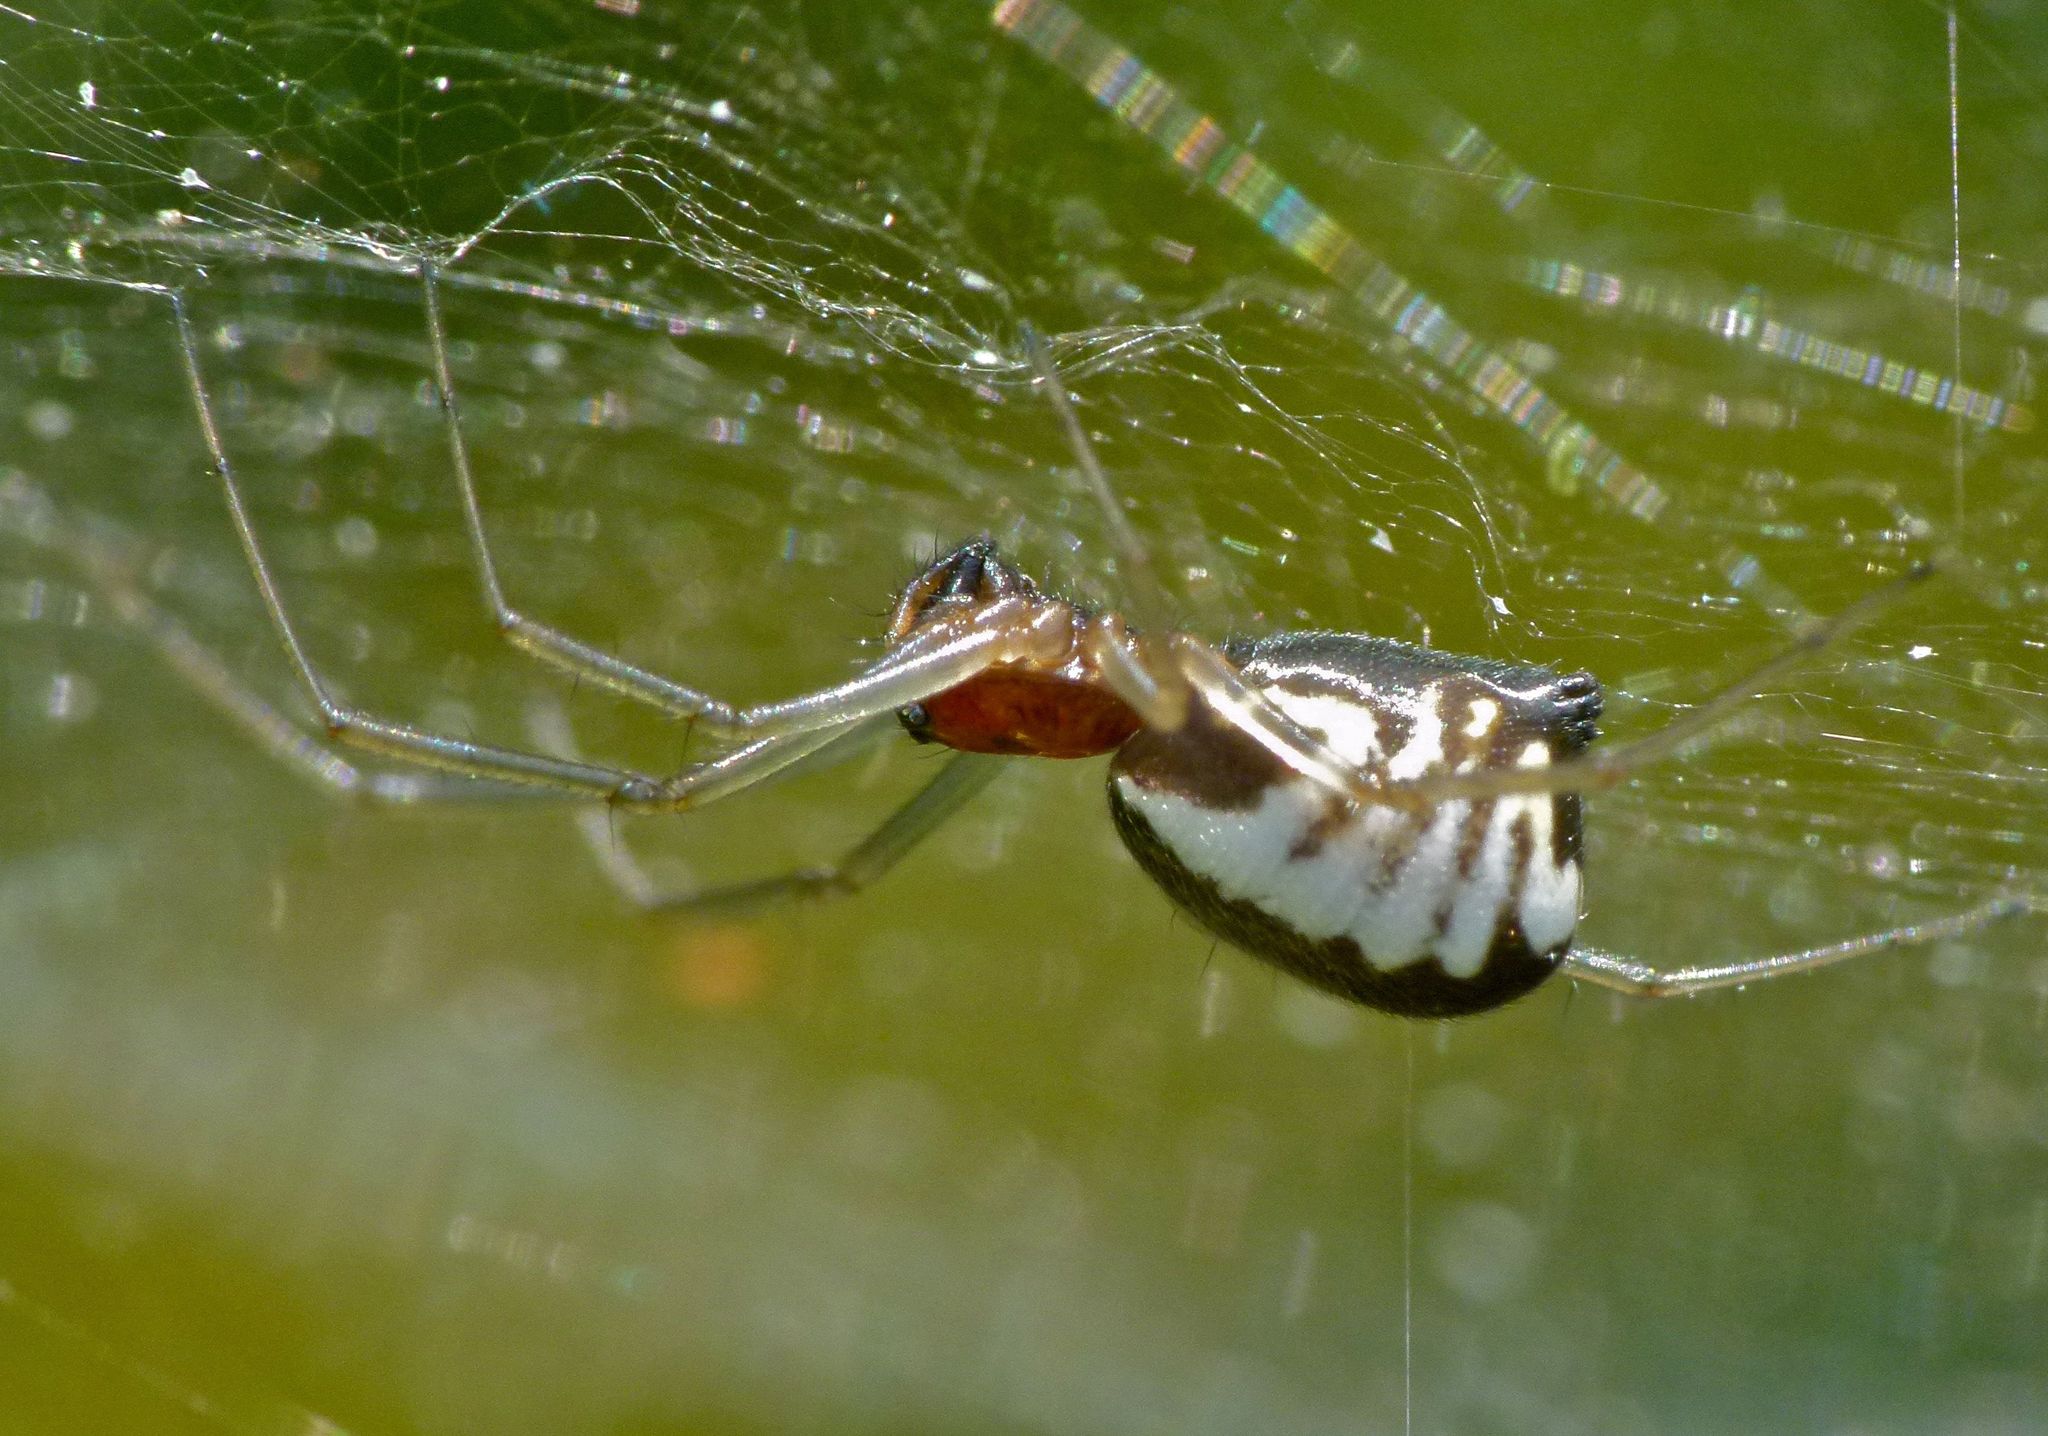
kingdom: Animalia
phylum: Arthropoda
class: Arachnida
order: Araneae
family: Linyphiidae
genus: Frontinella
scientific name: Frontinella pyramitela
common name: Bowl-and-doily spider
